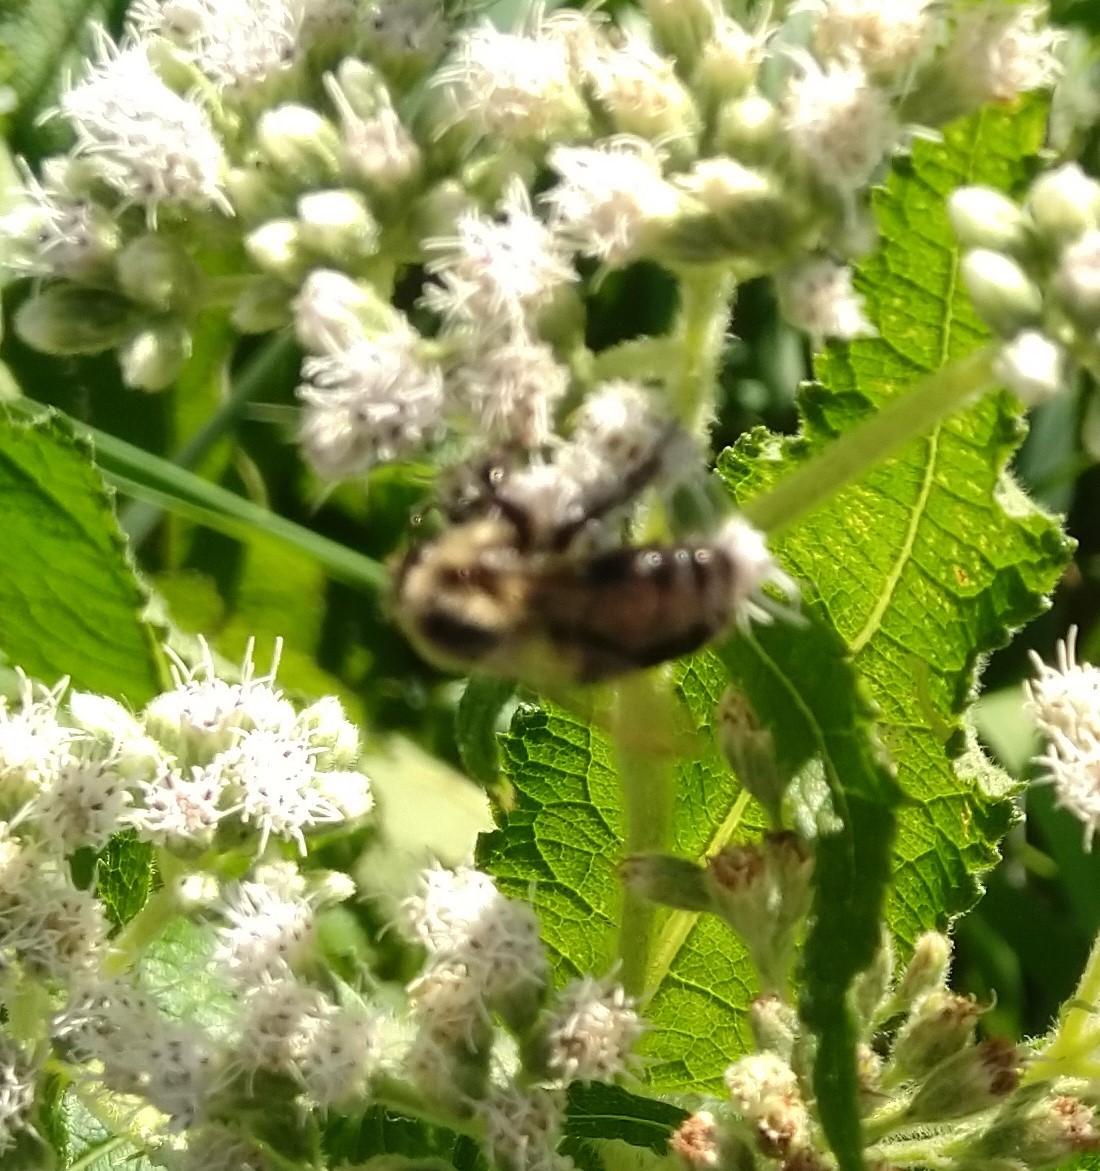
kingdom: Animalia
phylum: Arthropoda
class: Insecta
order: Hymenoptera
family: Apidae
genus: Bombus
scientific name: Bombus impatiens
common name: Common eastern bumble bee
